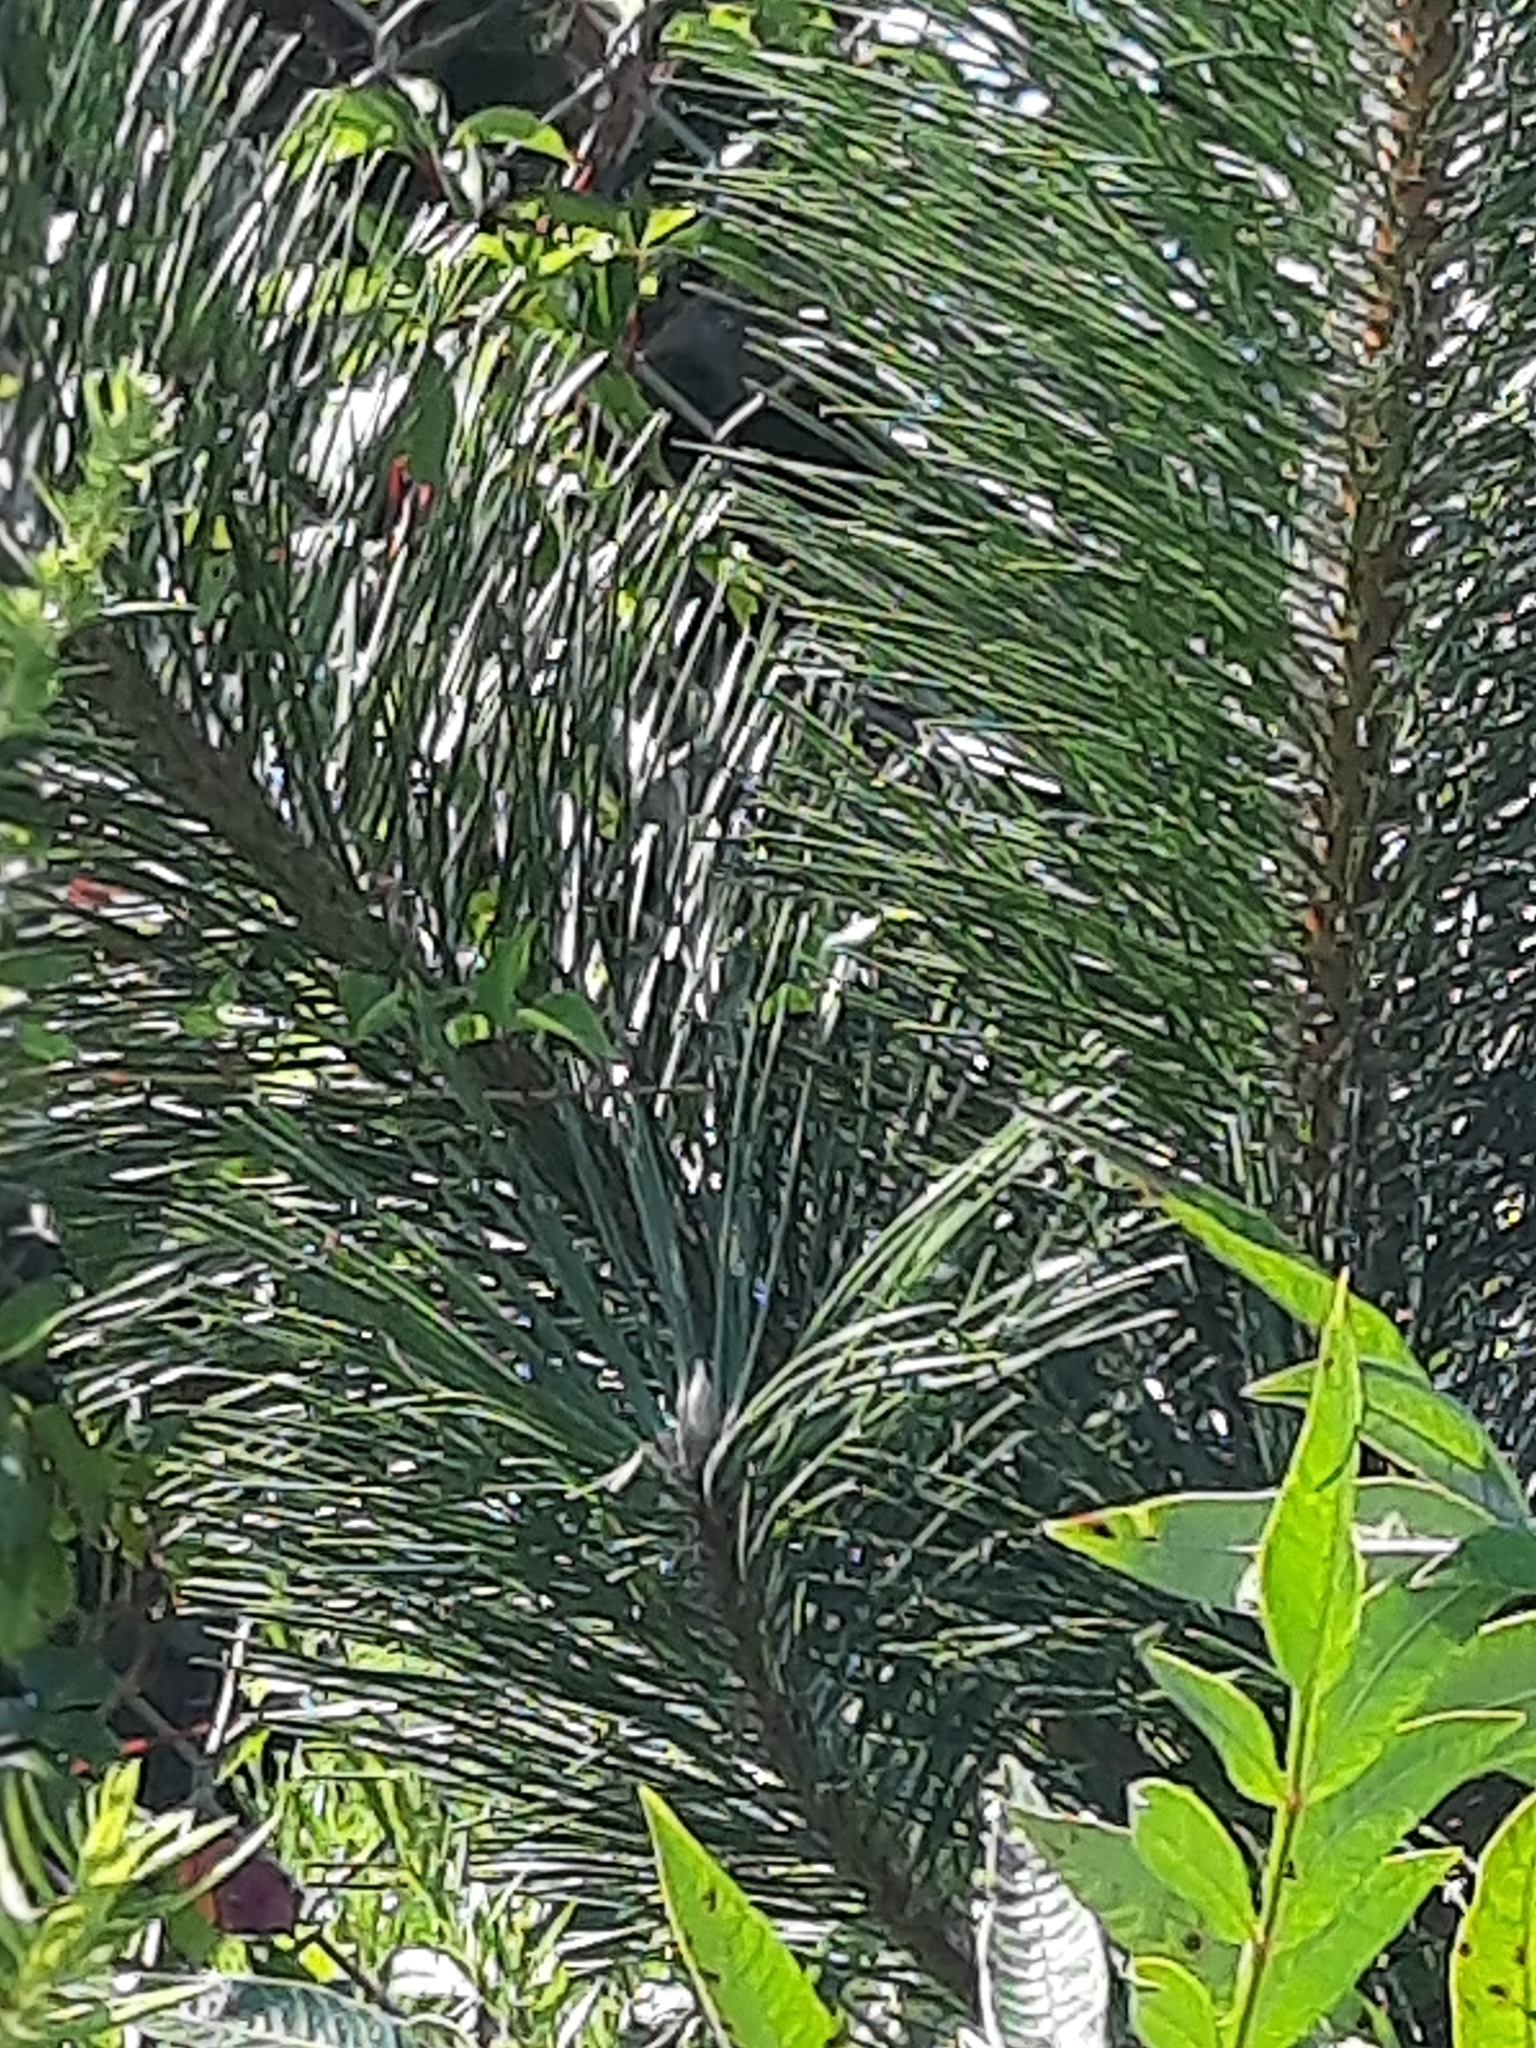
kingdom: Plantae
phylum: Tracheophyta
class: Pinopsida
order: Pinales
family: Pinaceae
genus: Pinus
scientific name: Pinus thunbergii
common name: Japanese black pine
